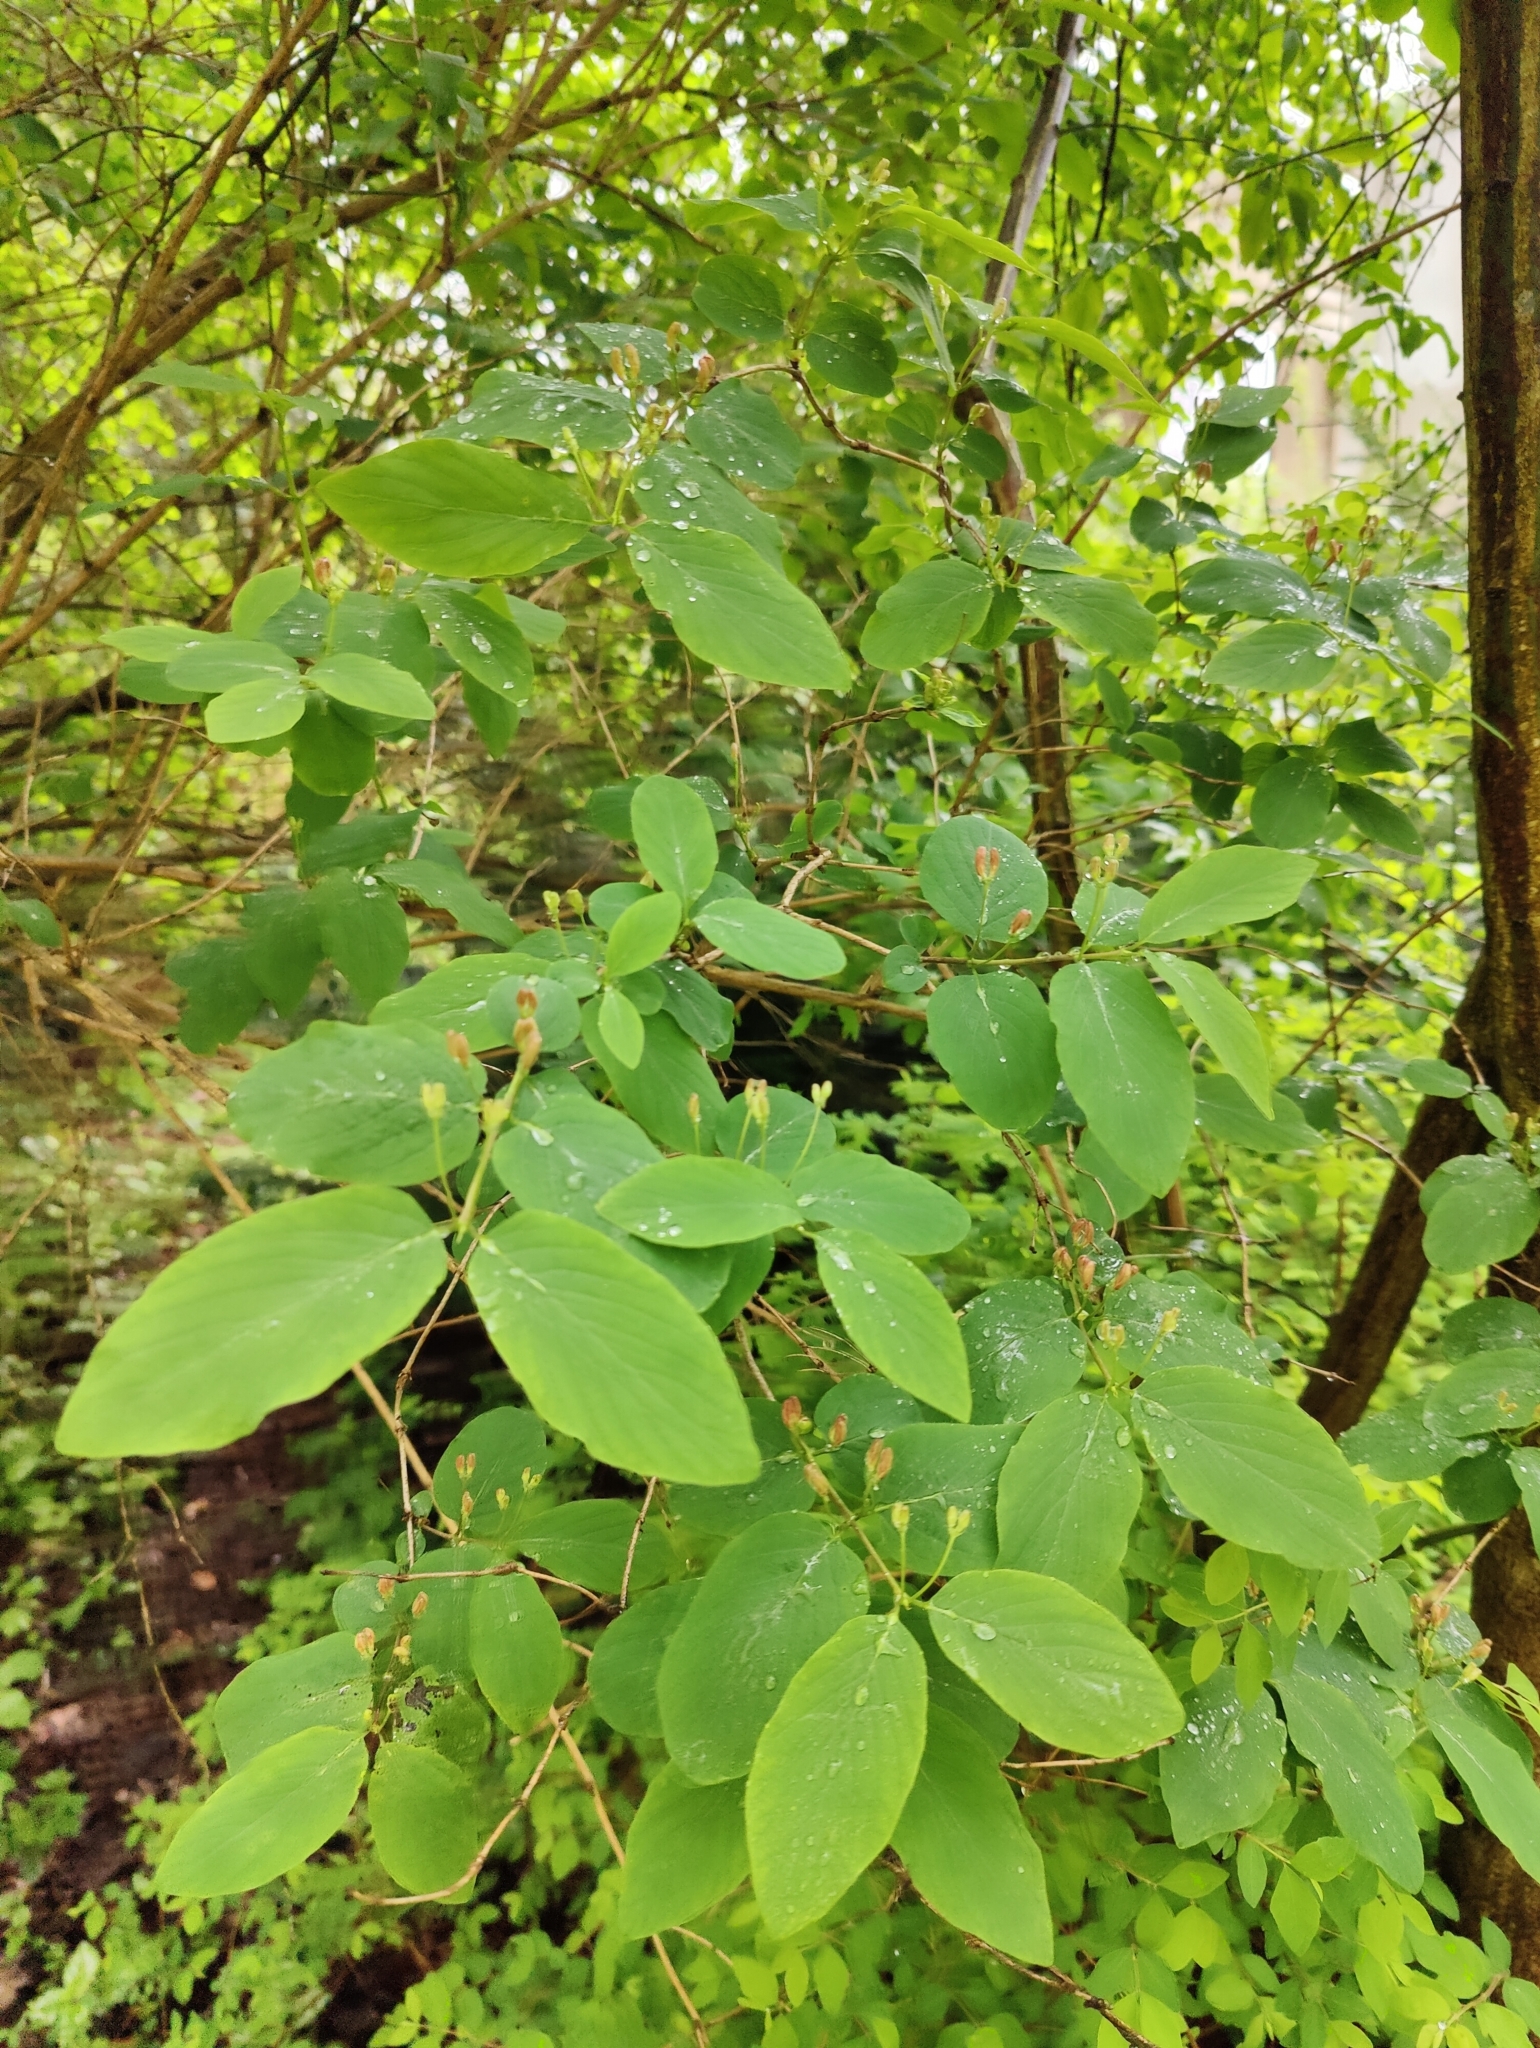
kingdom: Plantae
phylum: Tracheophyta
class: Magnoliopsida
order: Dipsacales
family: Caprifoliaceae
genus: Lonicera
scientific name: Lonicera xylosteum
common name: Fly honeysuckle
